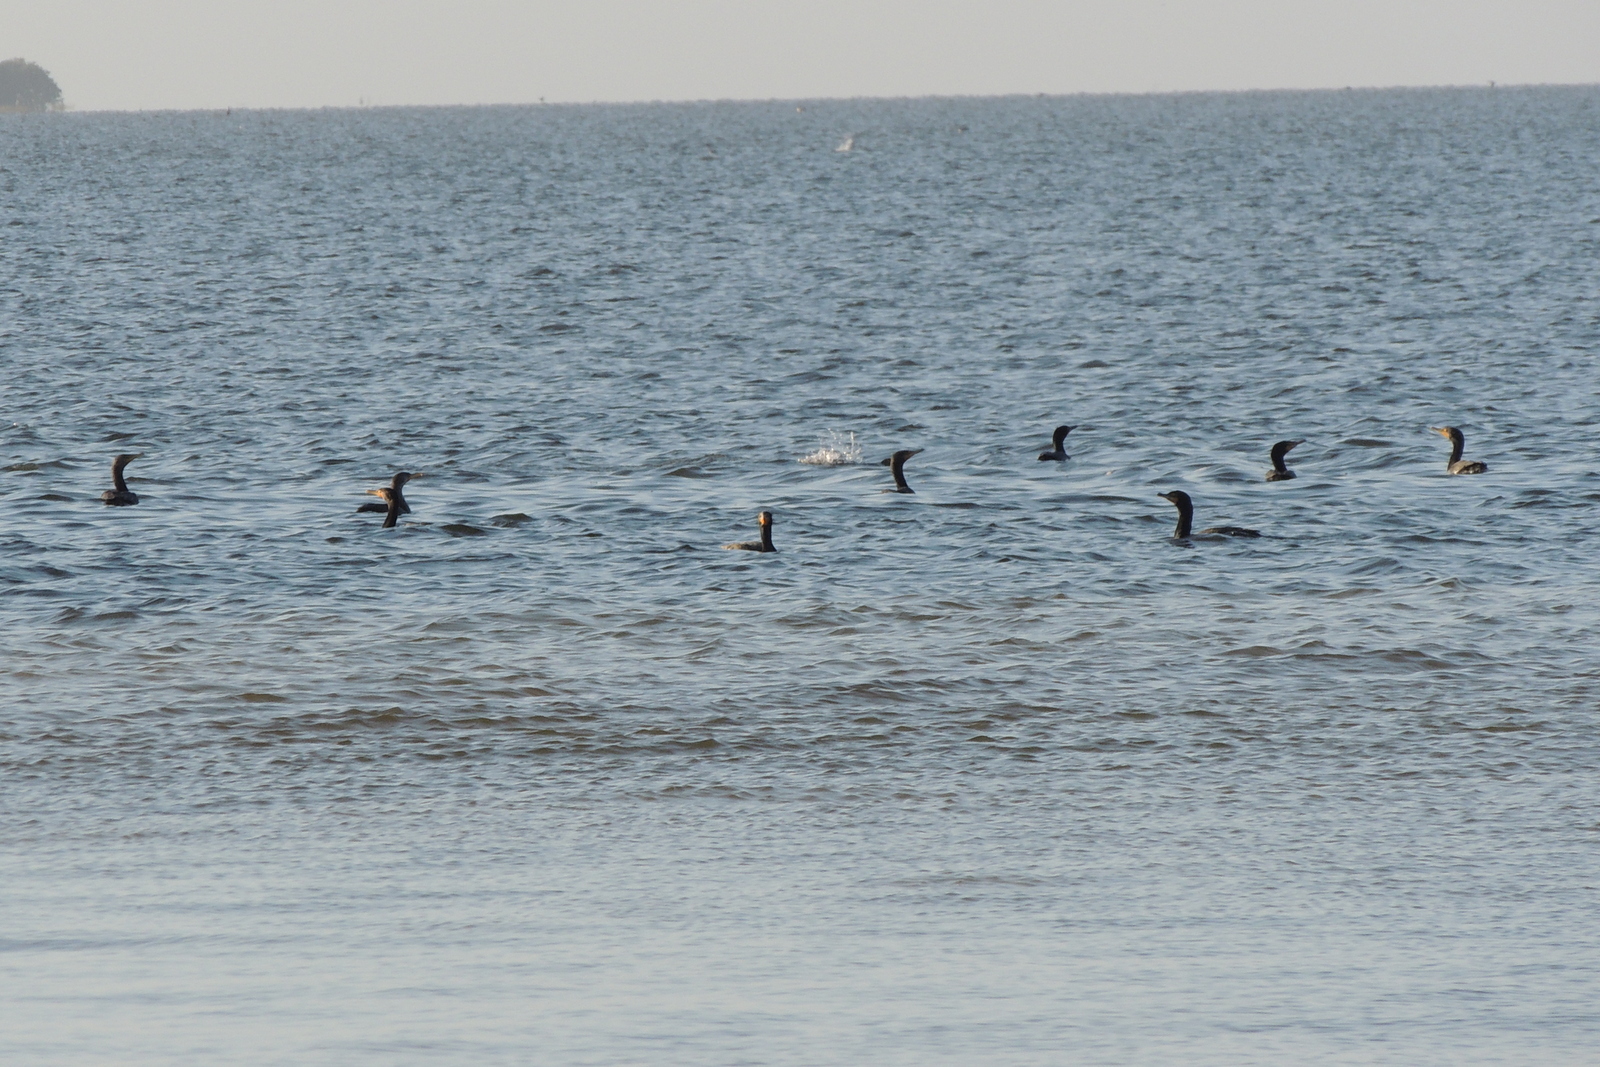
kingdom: Animalia
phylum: Chordata
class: Aves
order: Suliformes
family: Phalacrocoracidae
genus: Phalacrocorax
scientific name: Phalacrocorax auritus
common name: Double-crested cormorant
